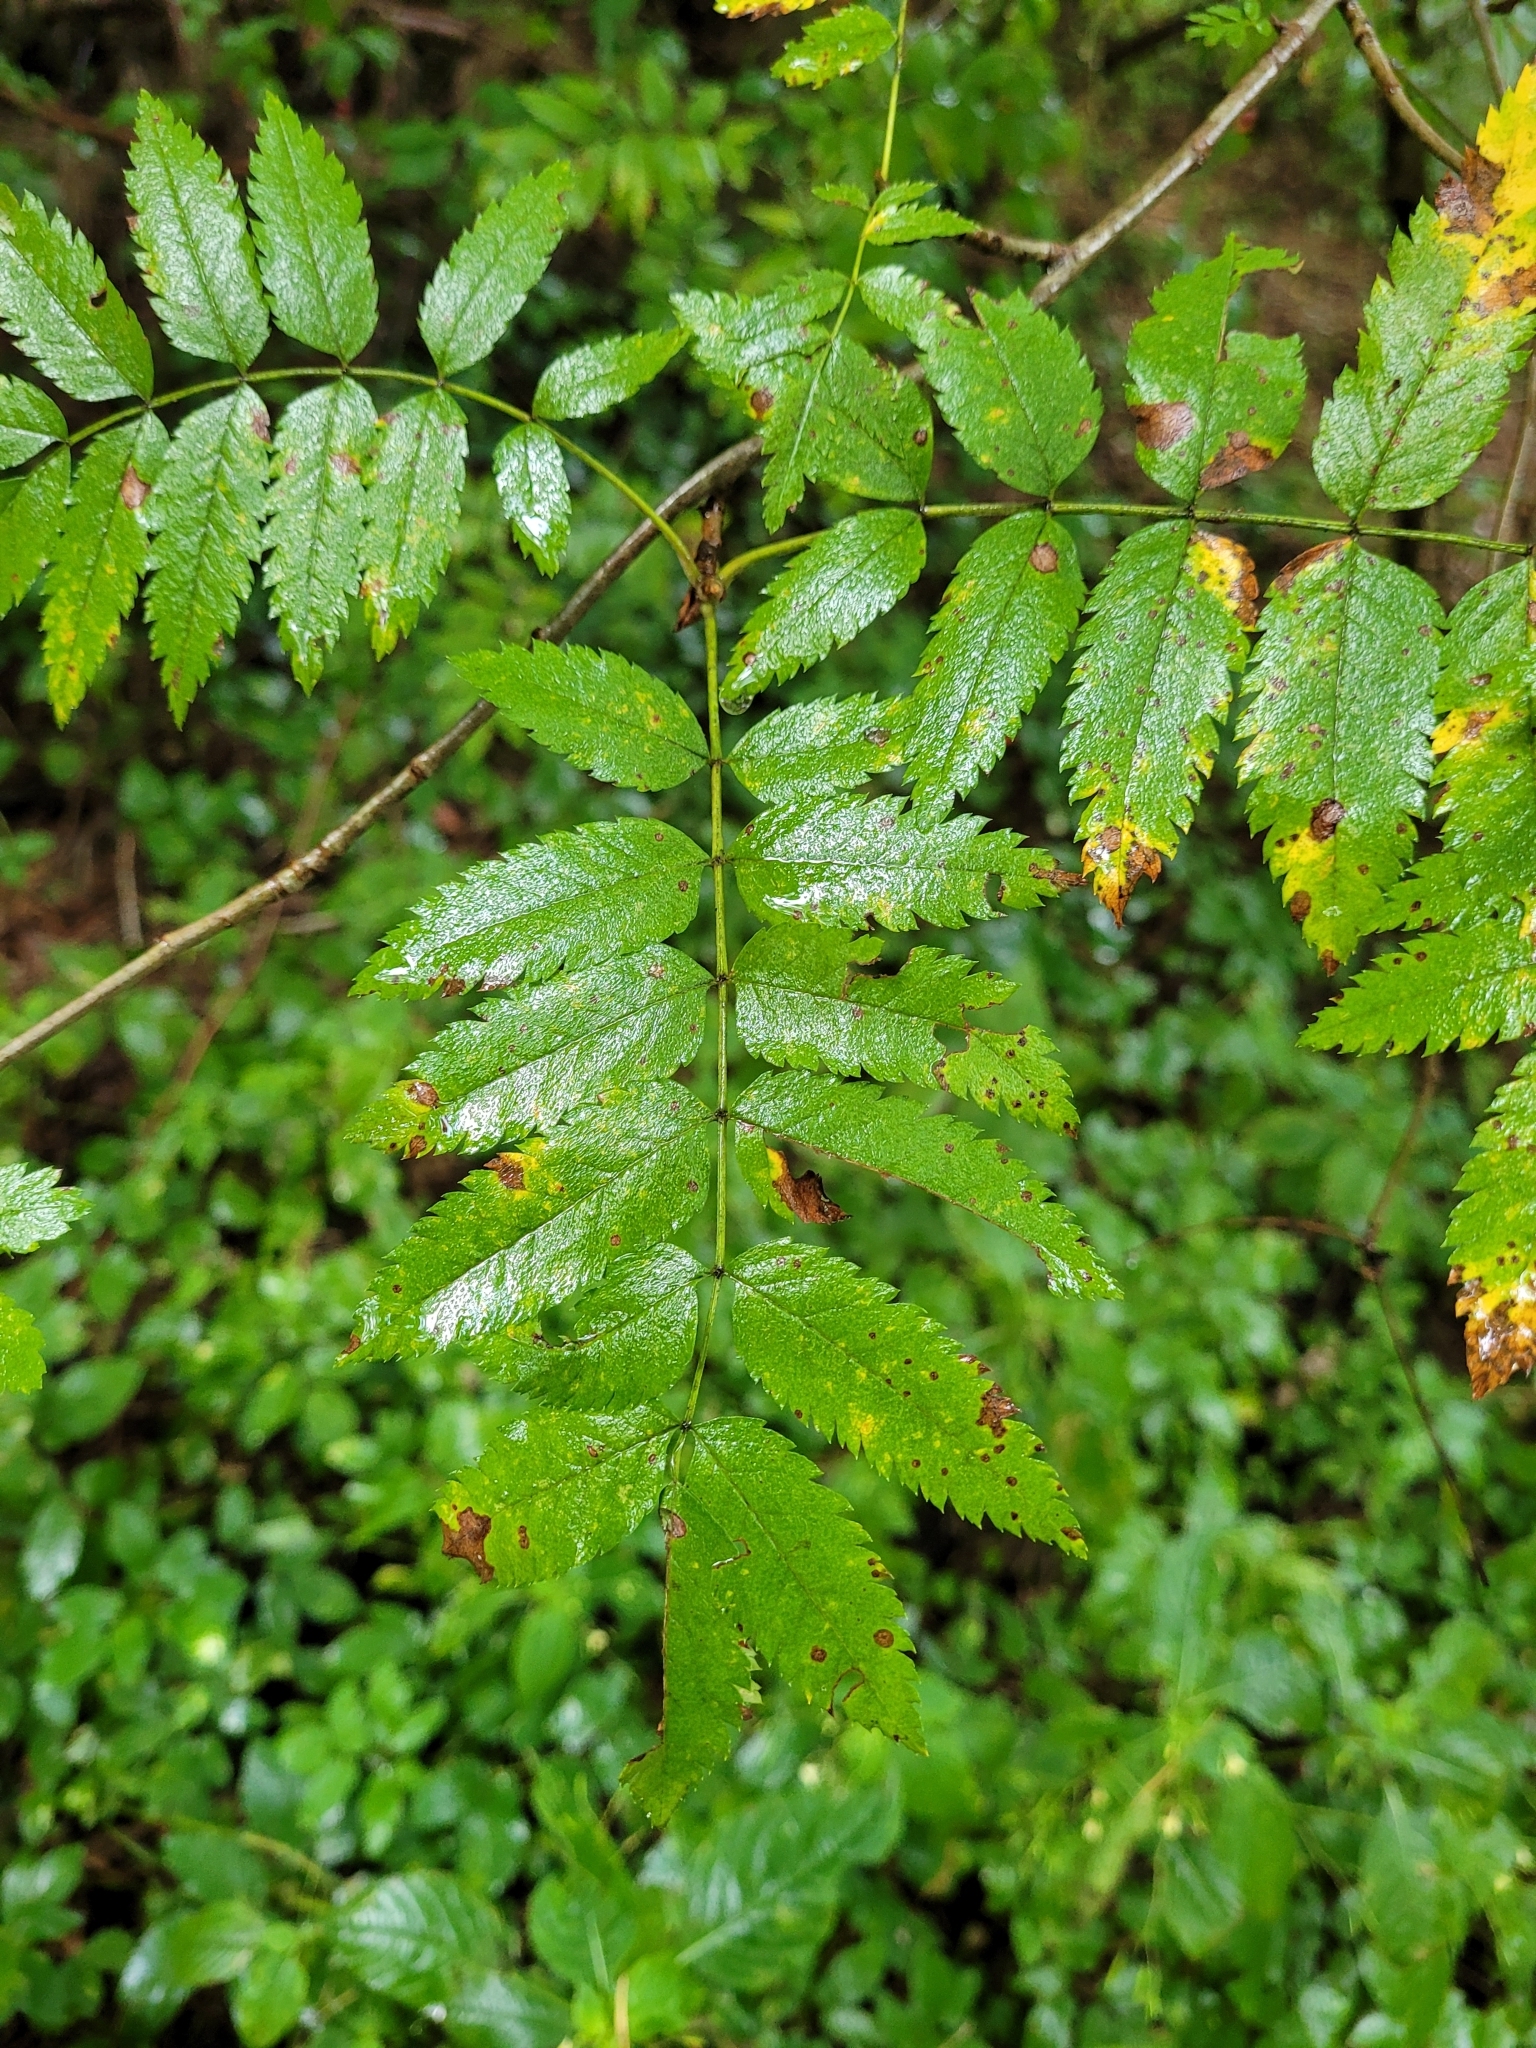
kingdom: Plantae
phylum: Tracheophyta
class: Magnoliopsida
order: Rosales
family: Rosaceae
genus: Sorbus
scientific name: Sorbus aucuparia
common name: Rowan
